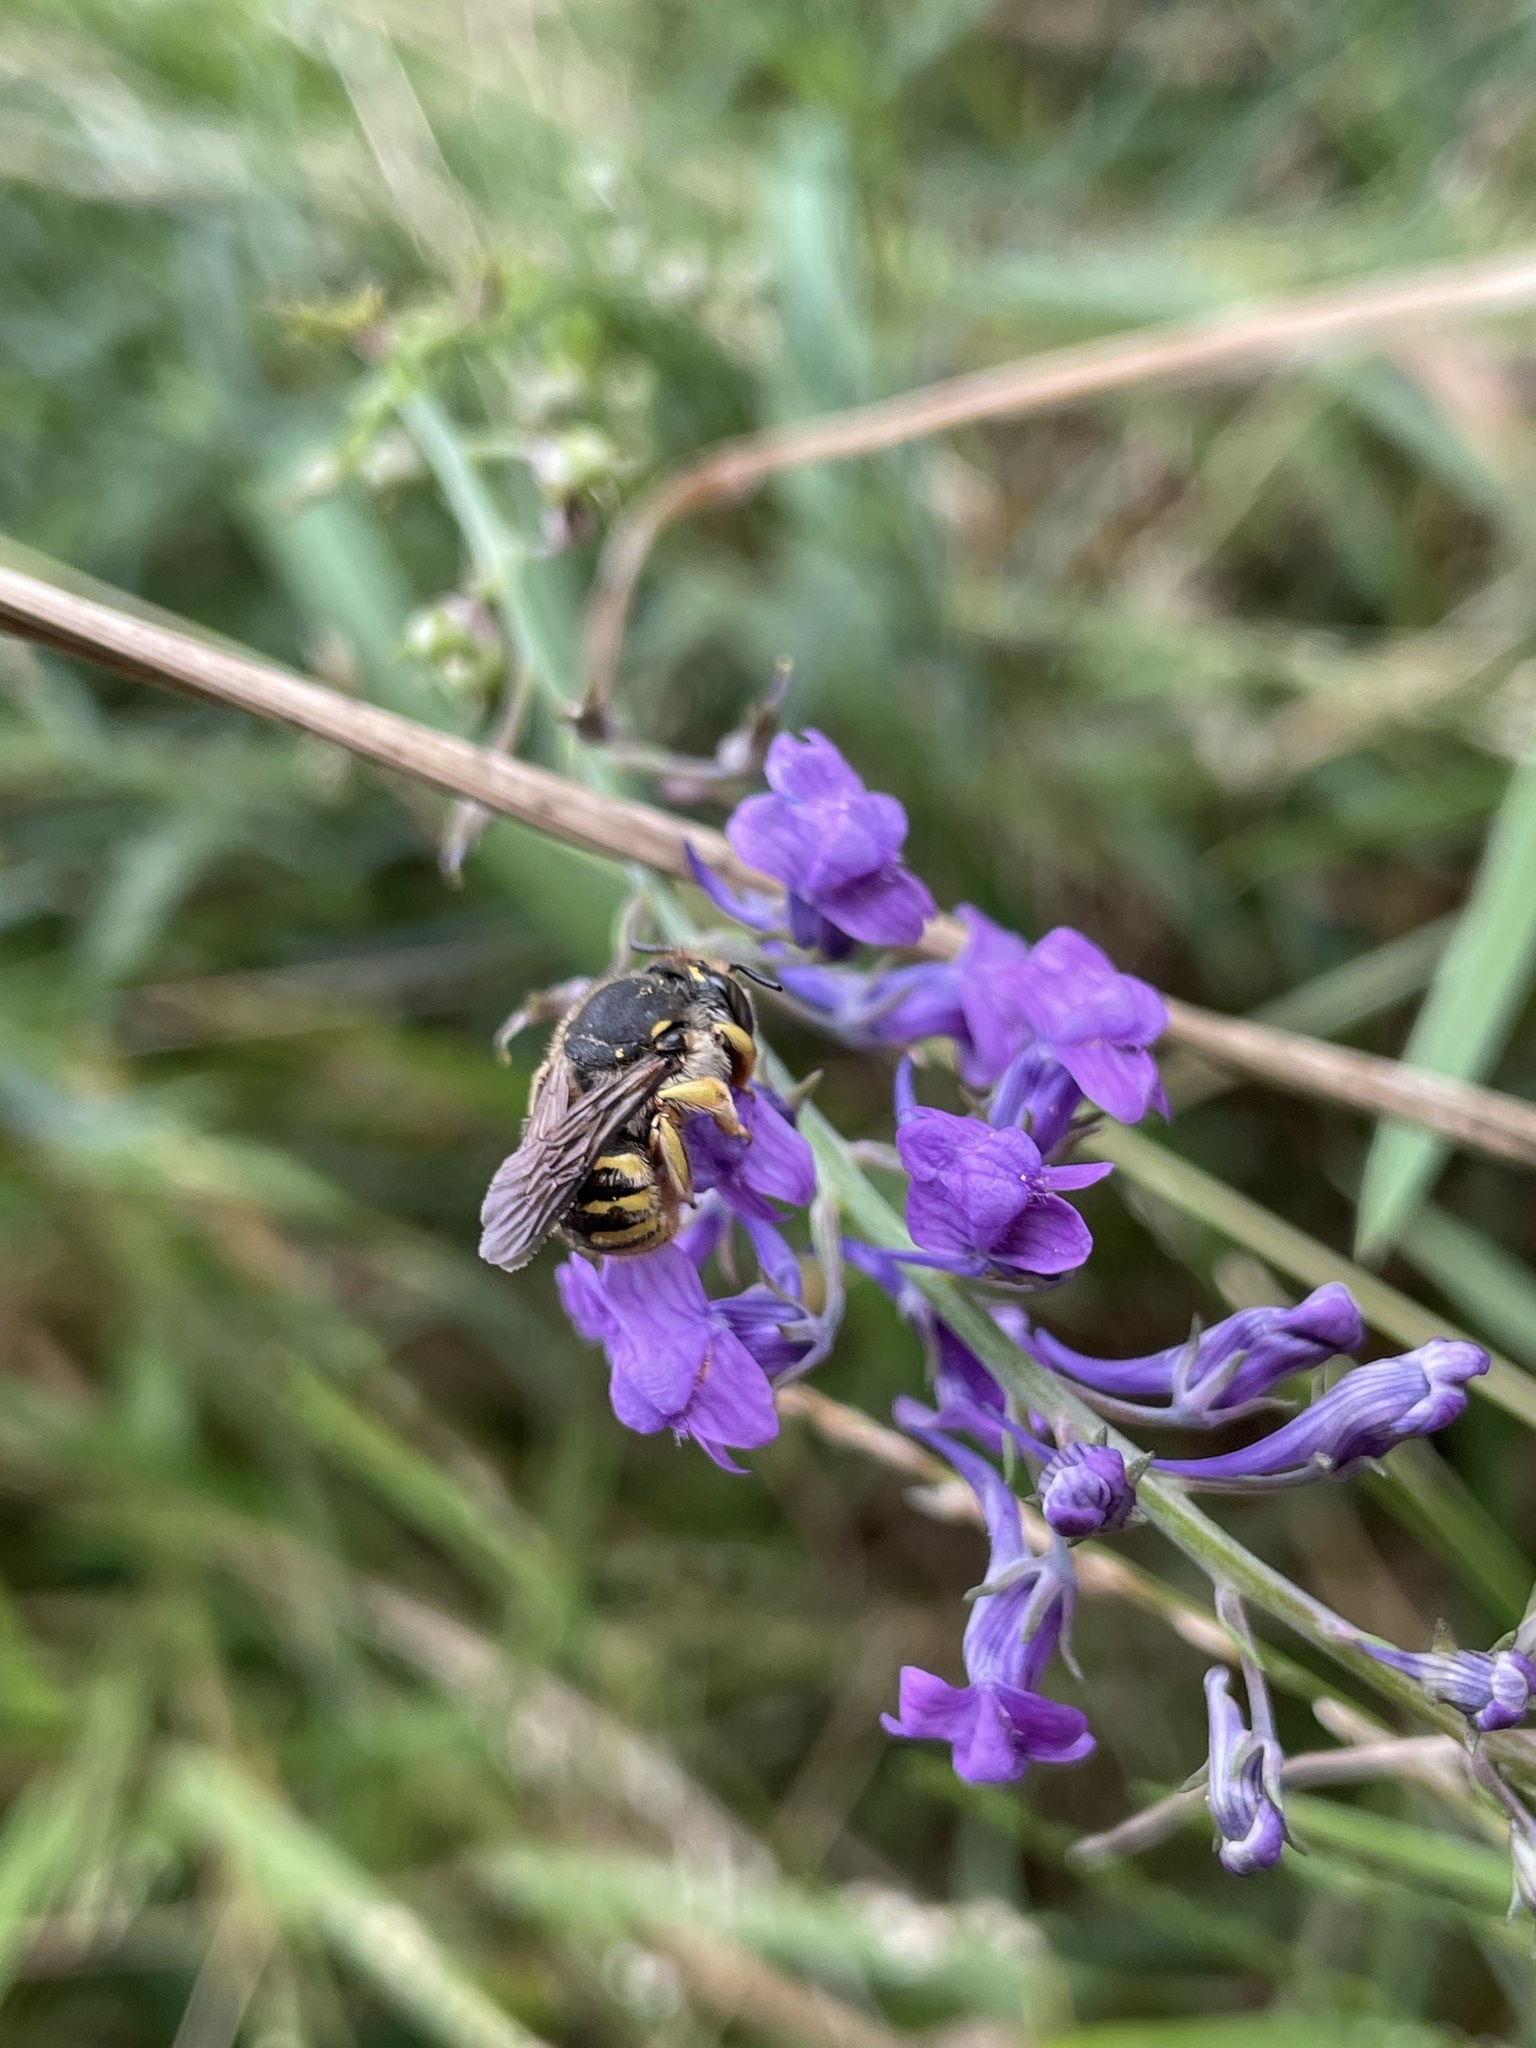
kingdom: Animalia
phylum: Arthropoda
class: Insecta
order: Hymenoptera
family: Megachilidae
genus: Anthidium
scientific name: Anthidium manicatum
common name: Wool carder bee
